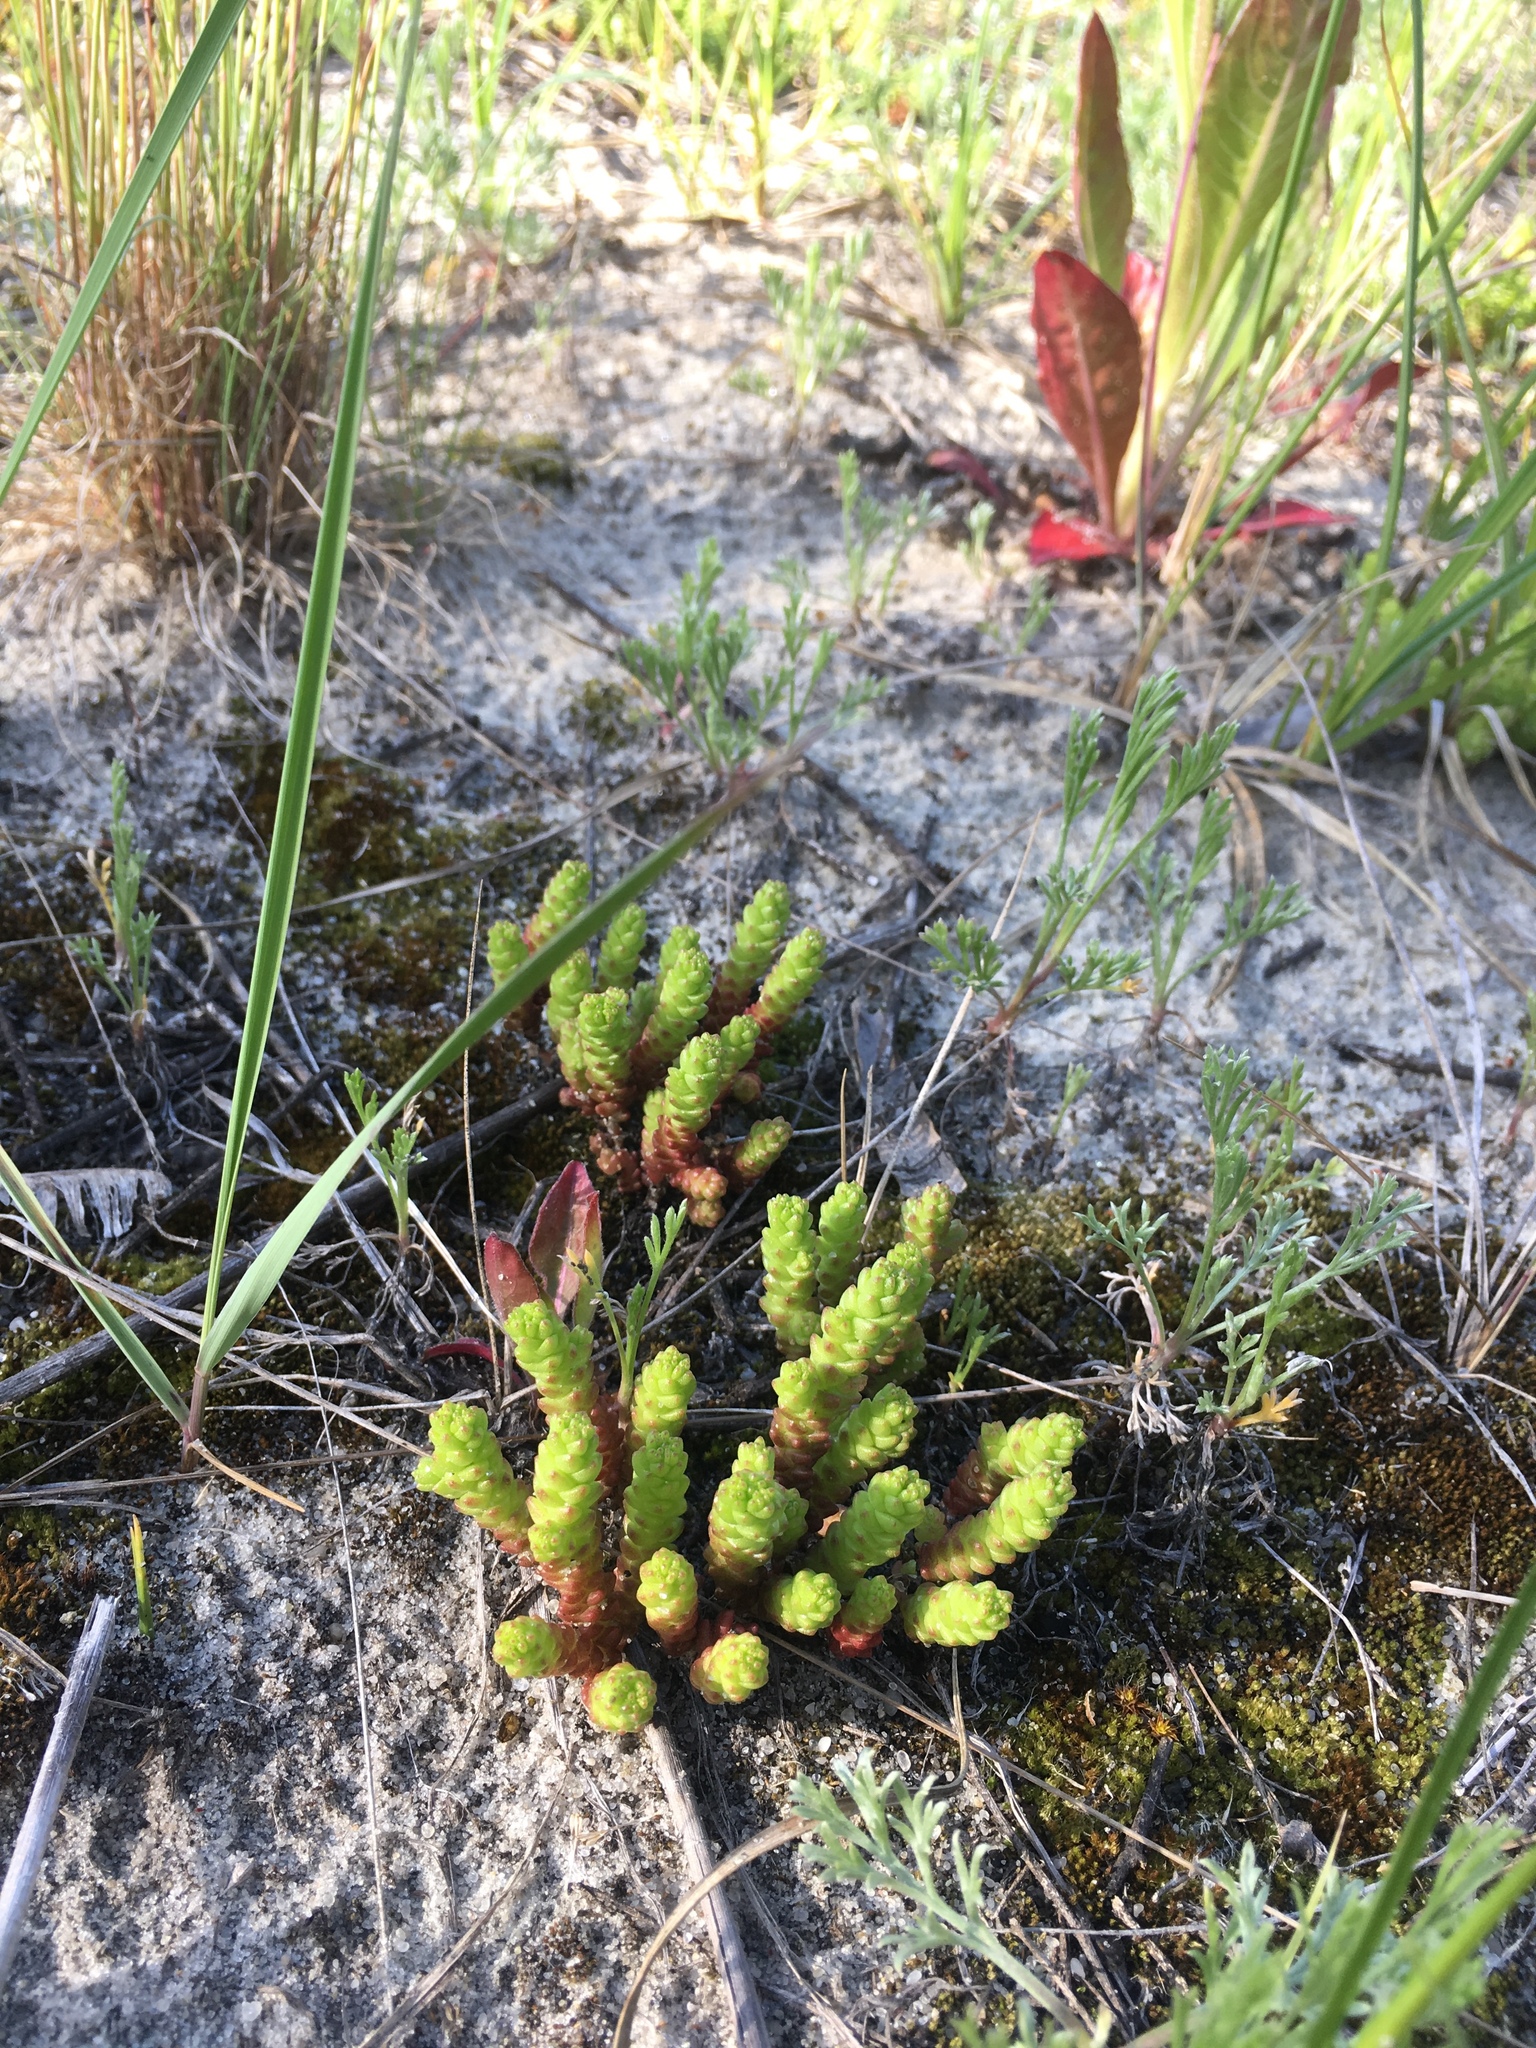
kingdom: Plantae
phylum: Tracheophyta
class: Magnoliopsida
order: Saxifragales
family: Crassulaceae
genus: Sedum
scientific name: Sedum acre
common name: Biting stonecrop
